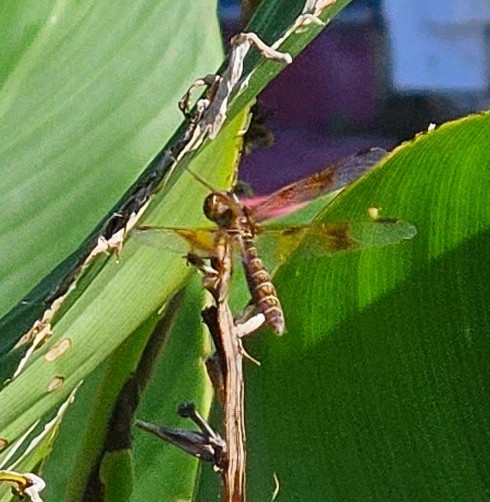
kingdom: Animalia
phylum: Arthropoda
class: Insecta
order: Odonata
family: Libellulidae
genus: Perithemis
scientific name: Perithemis tenera
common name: Eastern amberwing
